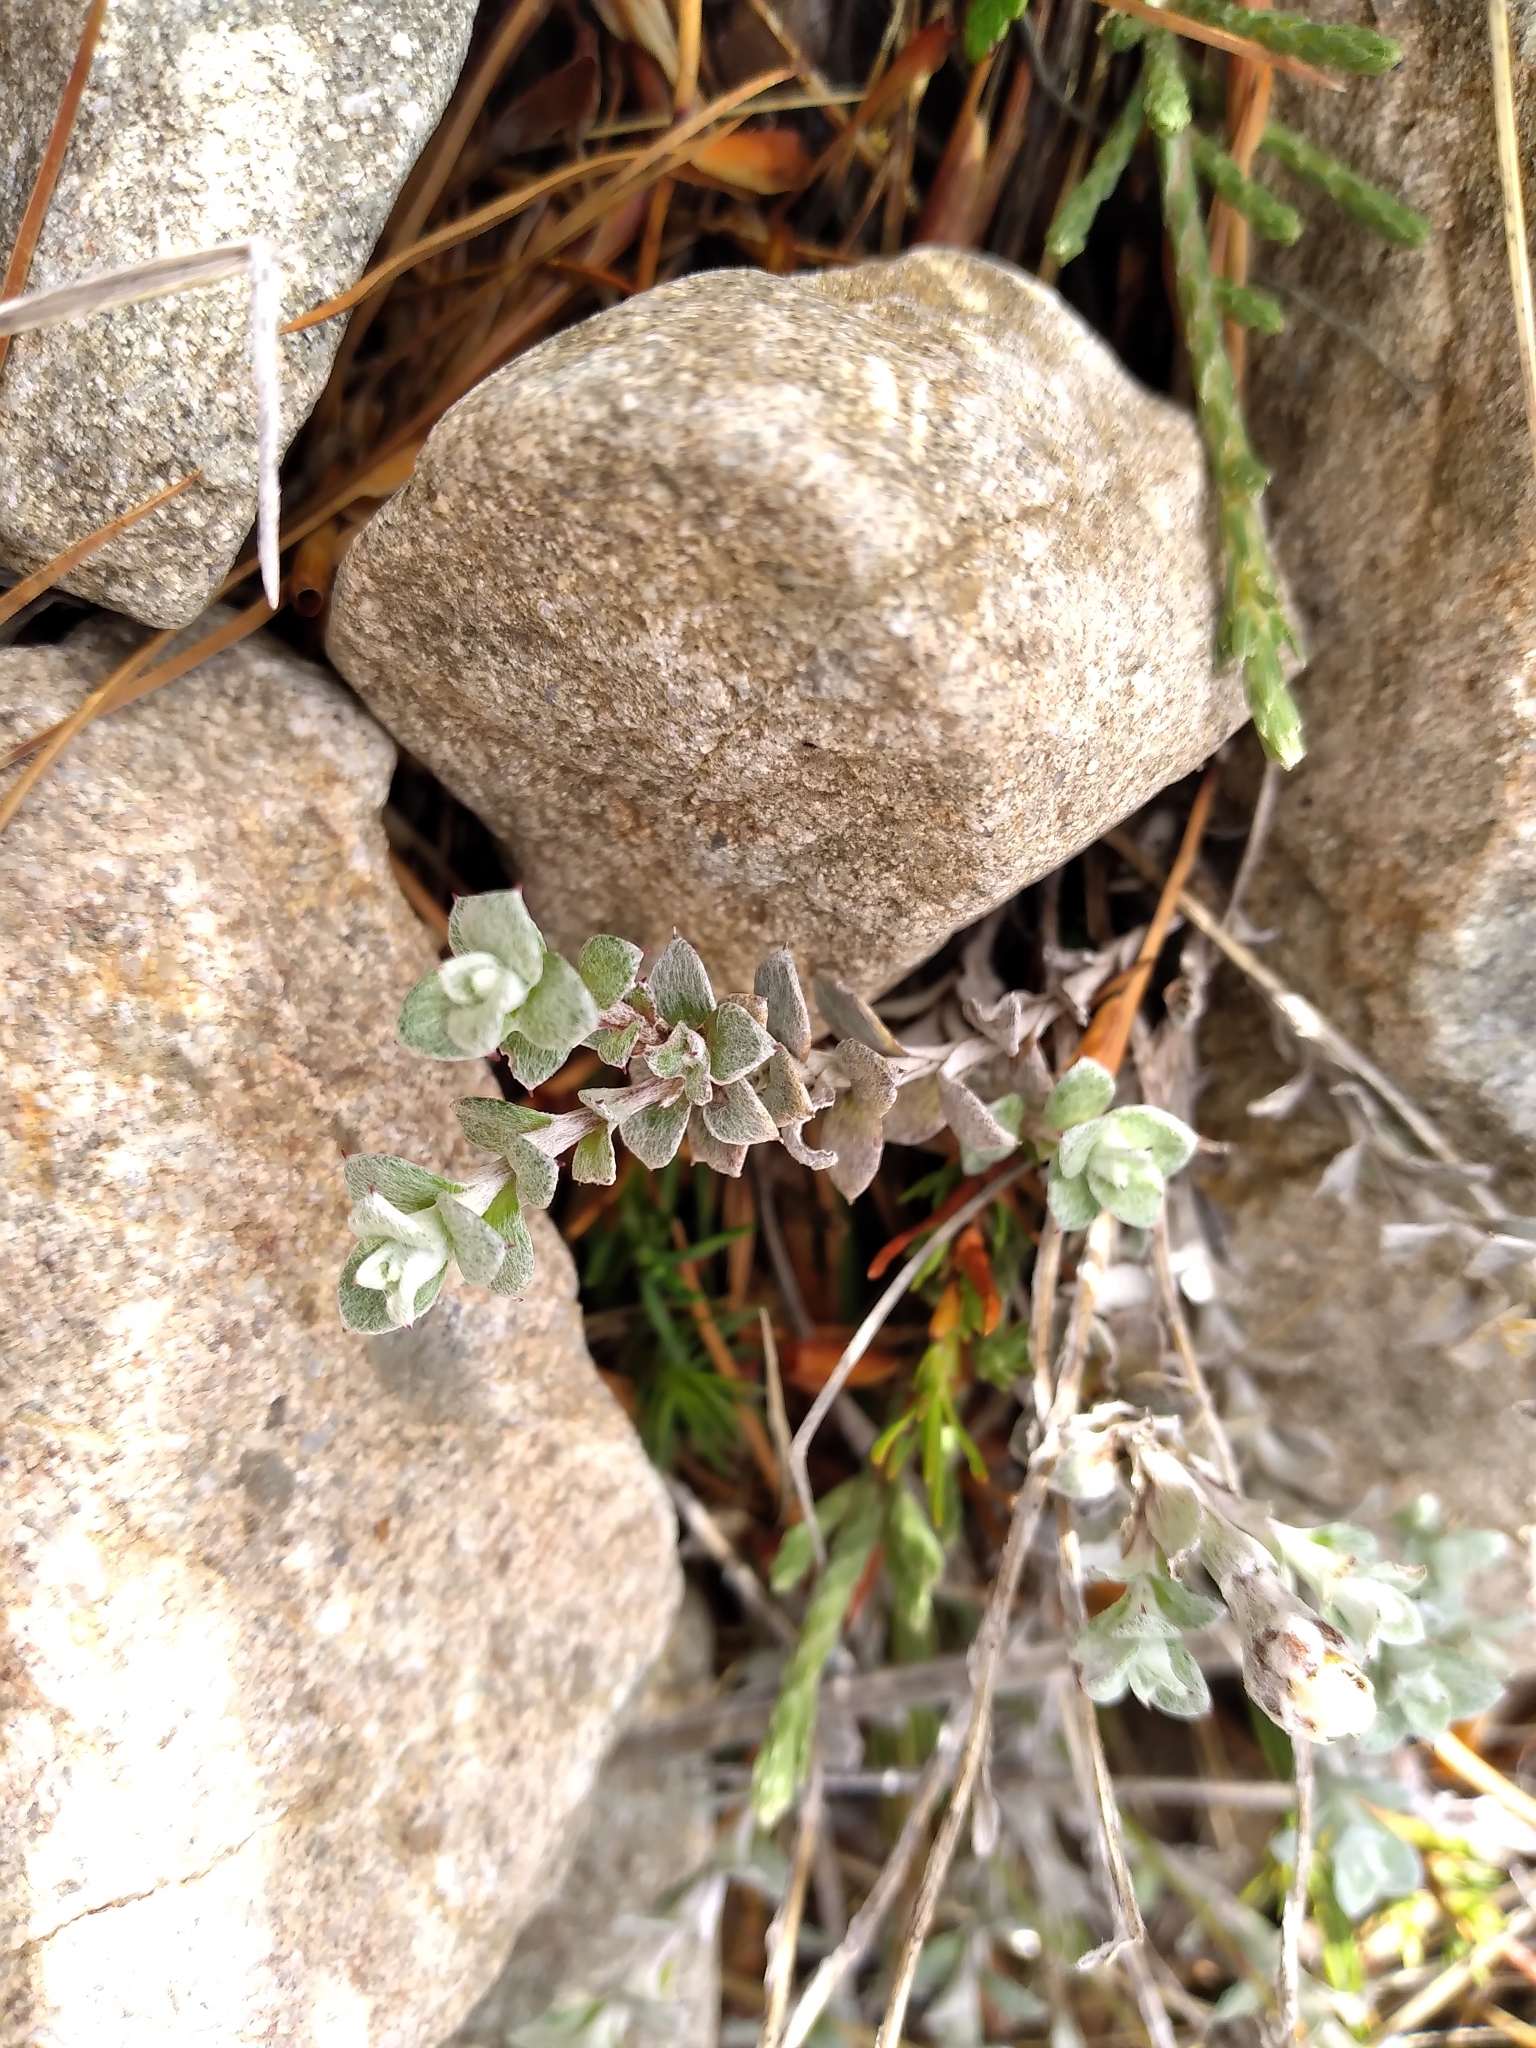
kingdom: Plantae
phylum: Tracheophyta
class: Magnoliopsida
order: Asterales
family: Asteraceae
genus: Anaphalioides
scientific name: Anaphalioides bellidioides
